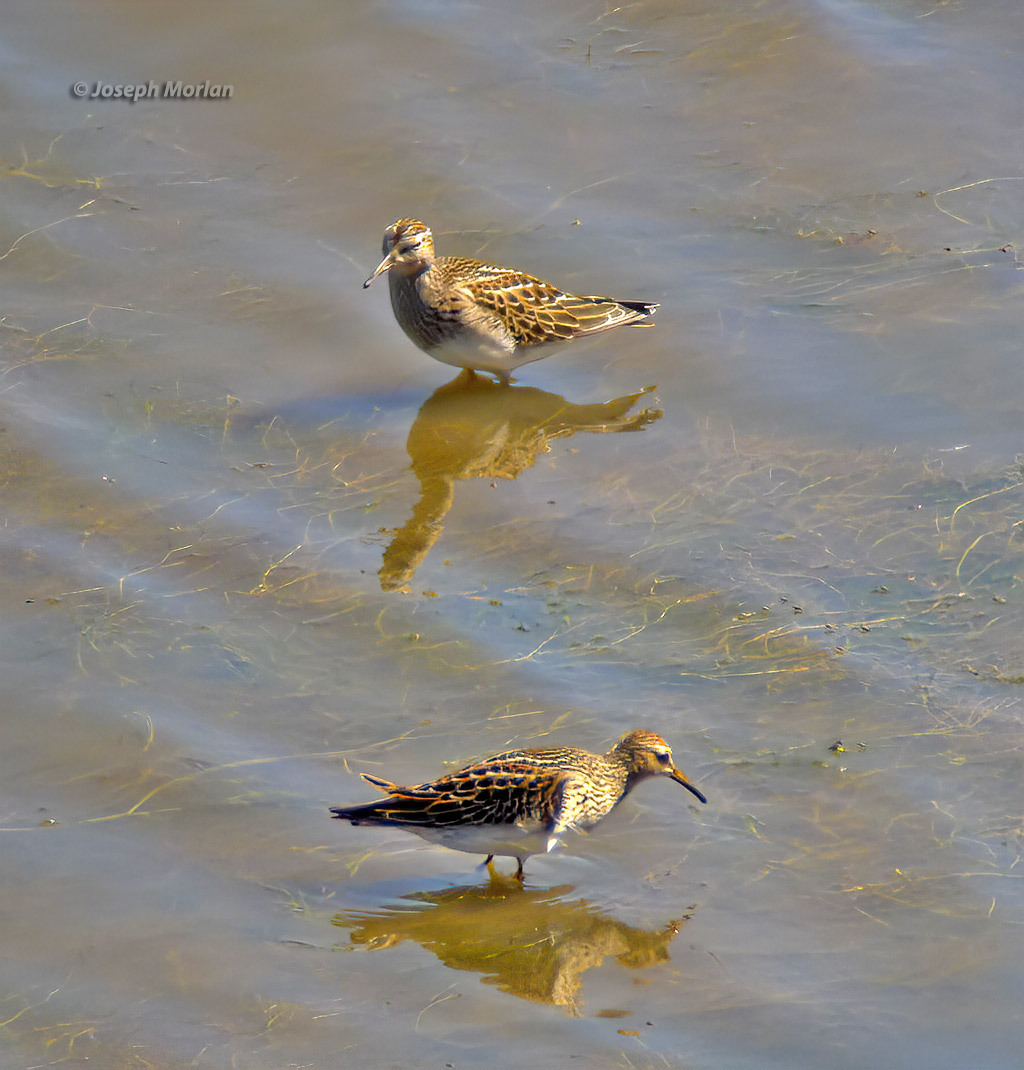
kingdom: Animalia
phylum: Chordata
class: Aves
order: Charadriiformes
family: Scolopacidae
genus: Calidris
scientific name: Calidris melanotos
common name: Pectoral sandpiper
